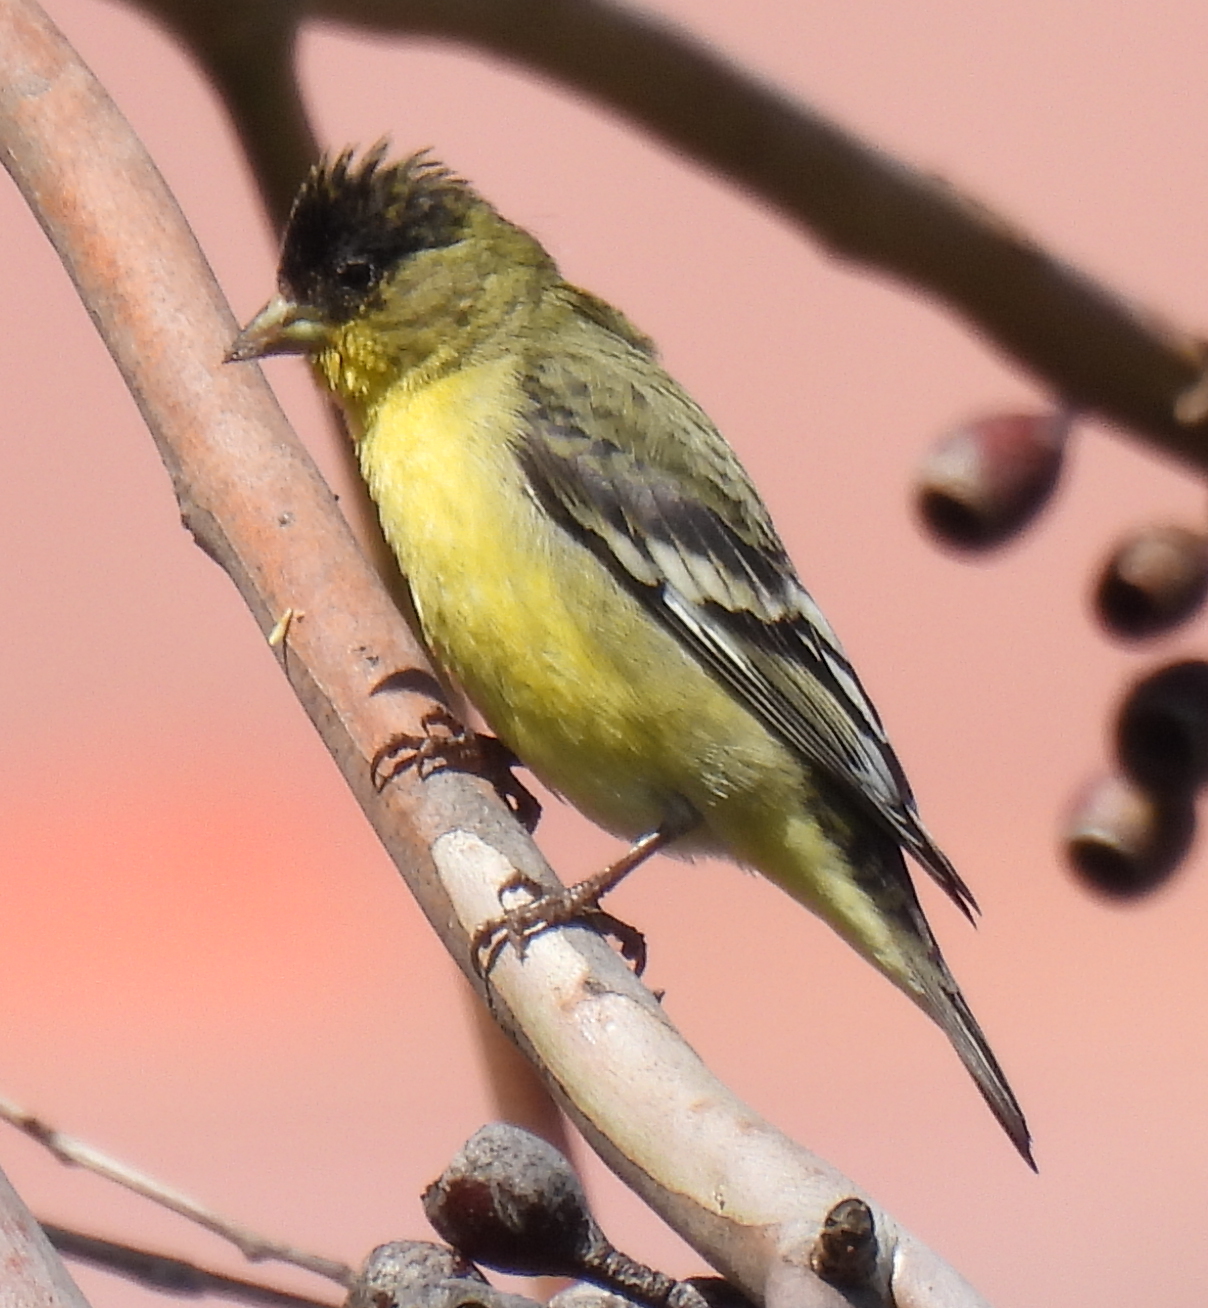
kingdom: Animalia
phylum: Chordata
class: Aves
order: Passeriformes
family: Fringillidae
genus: Spinus
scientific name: Spinus psaltria
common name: Lesser goldfinch
